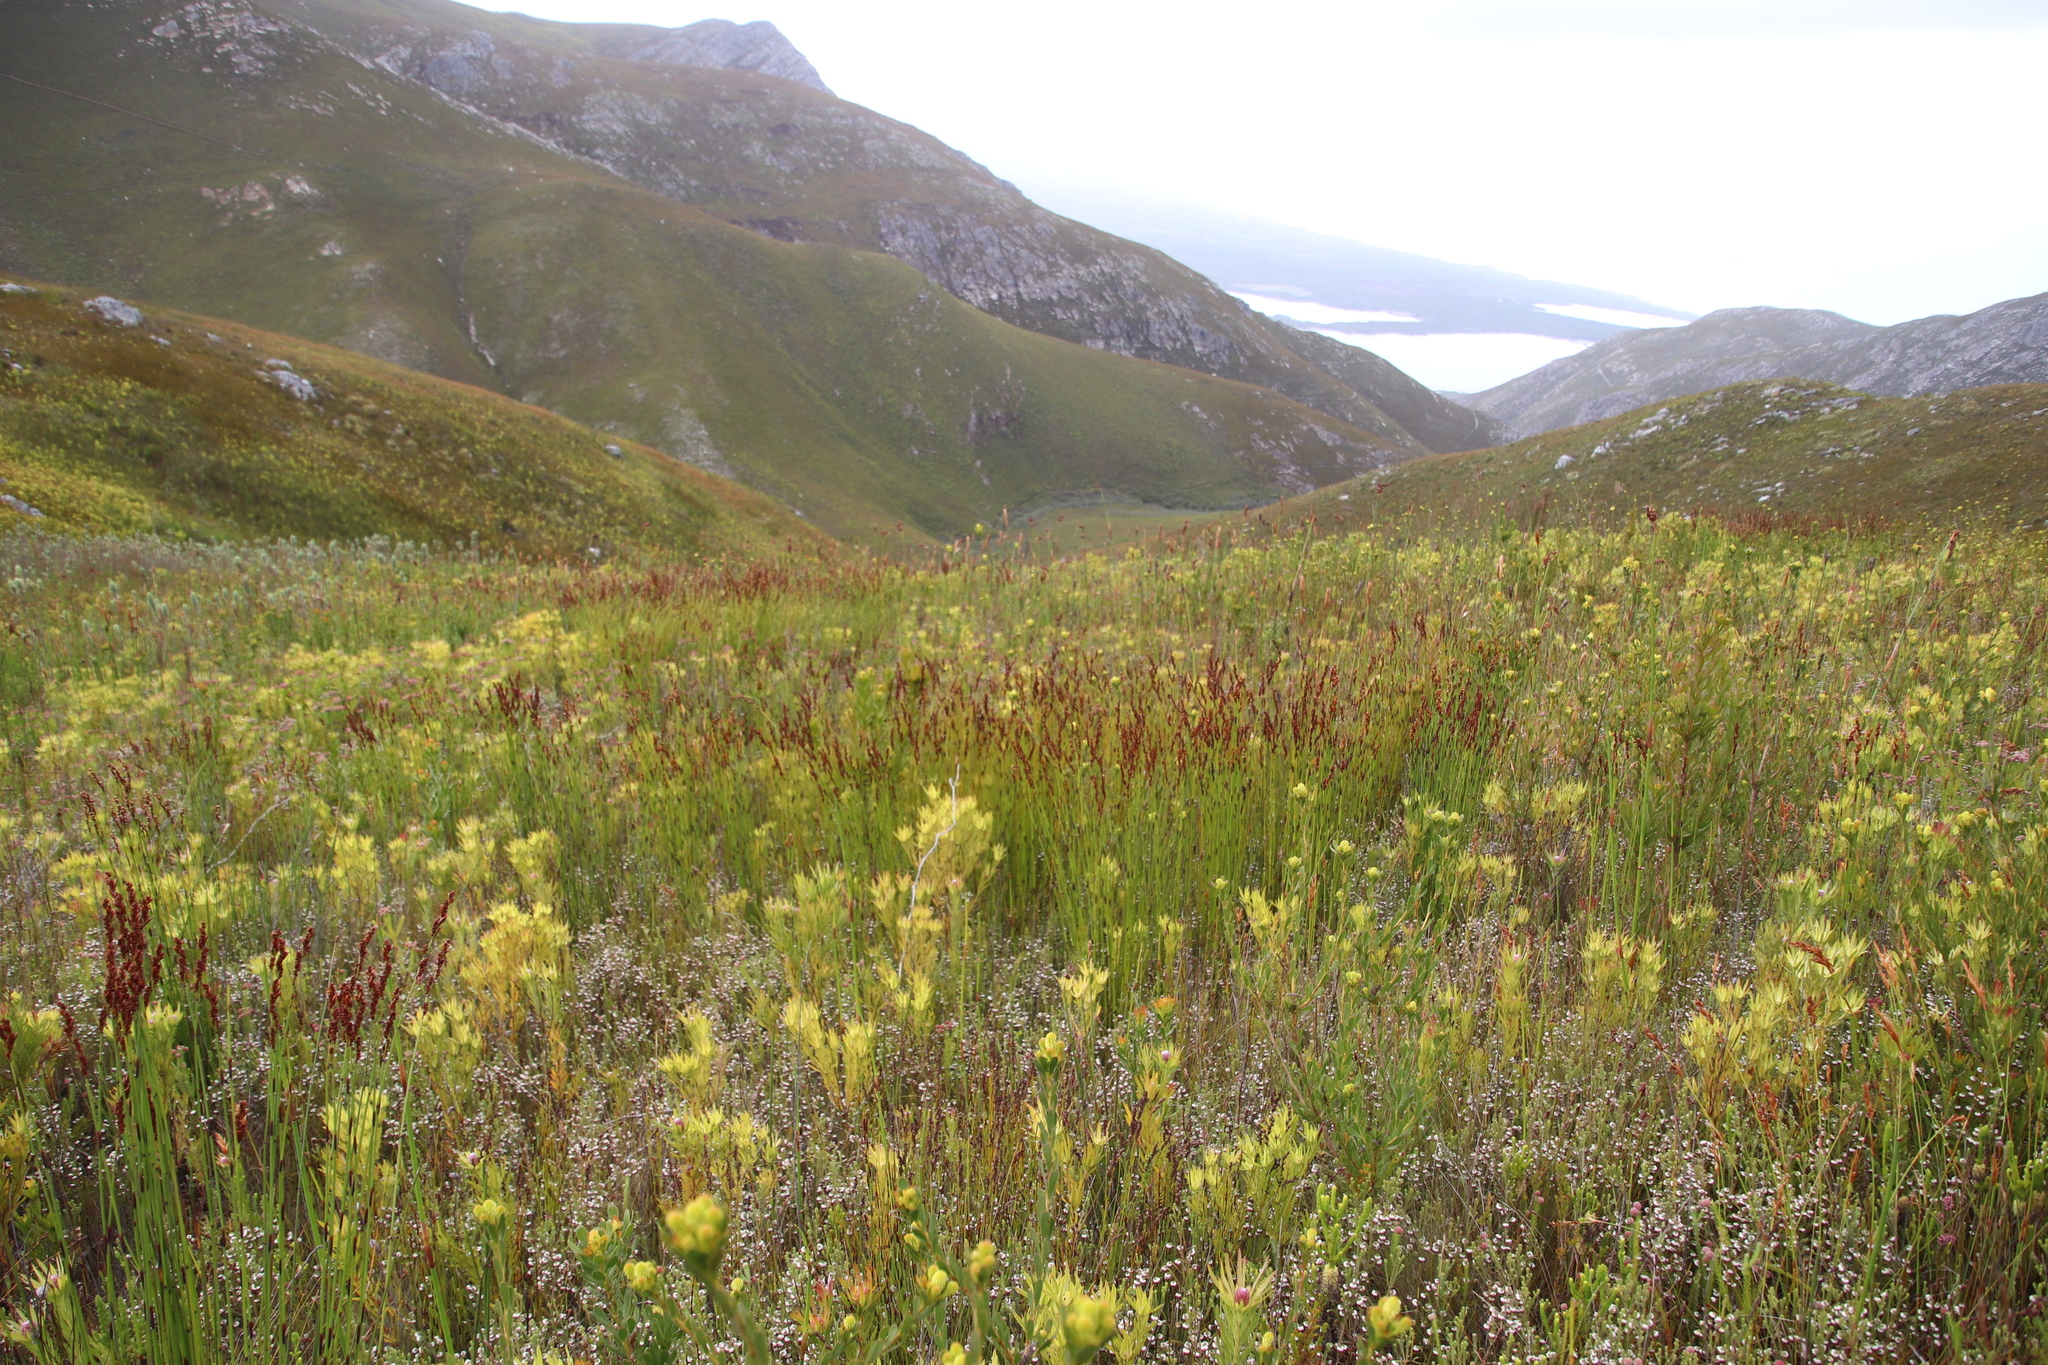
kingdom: Plantae
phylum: Tracheophyta
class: Liliopsida
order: Poales
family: Restionaceae
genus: Elegia
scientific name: Elegia hookeriana
